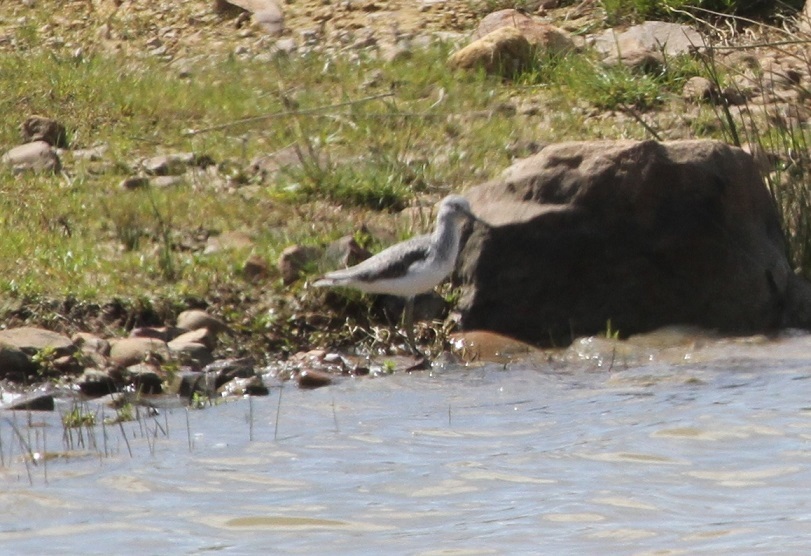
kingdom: Animalia
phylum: Chordata
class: Aves
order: Charadriiformes
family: Scolopacidae
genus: Tringa
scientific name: Tringa nebularia
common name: Common greenshank
